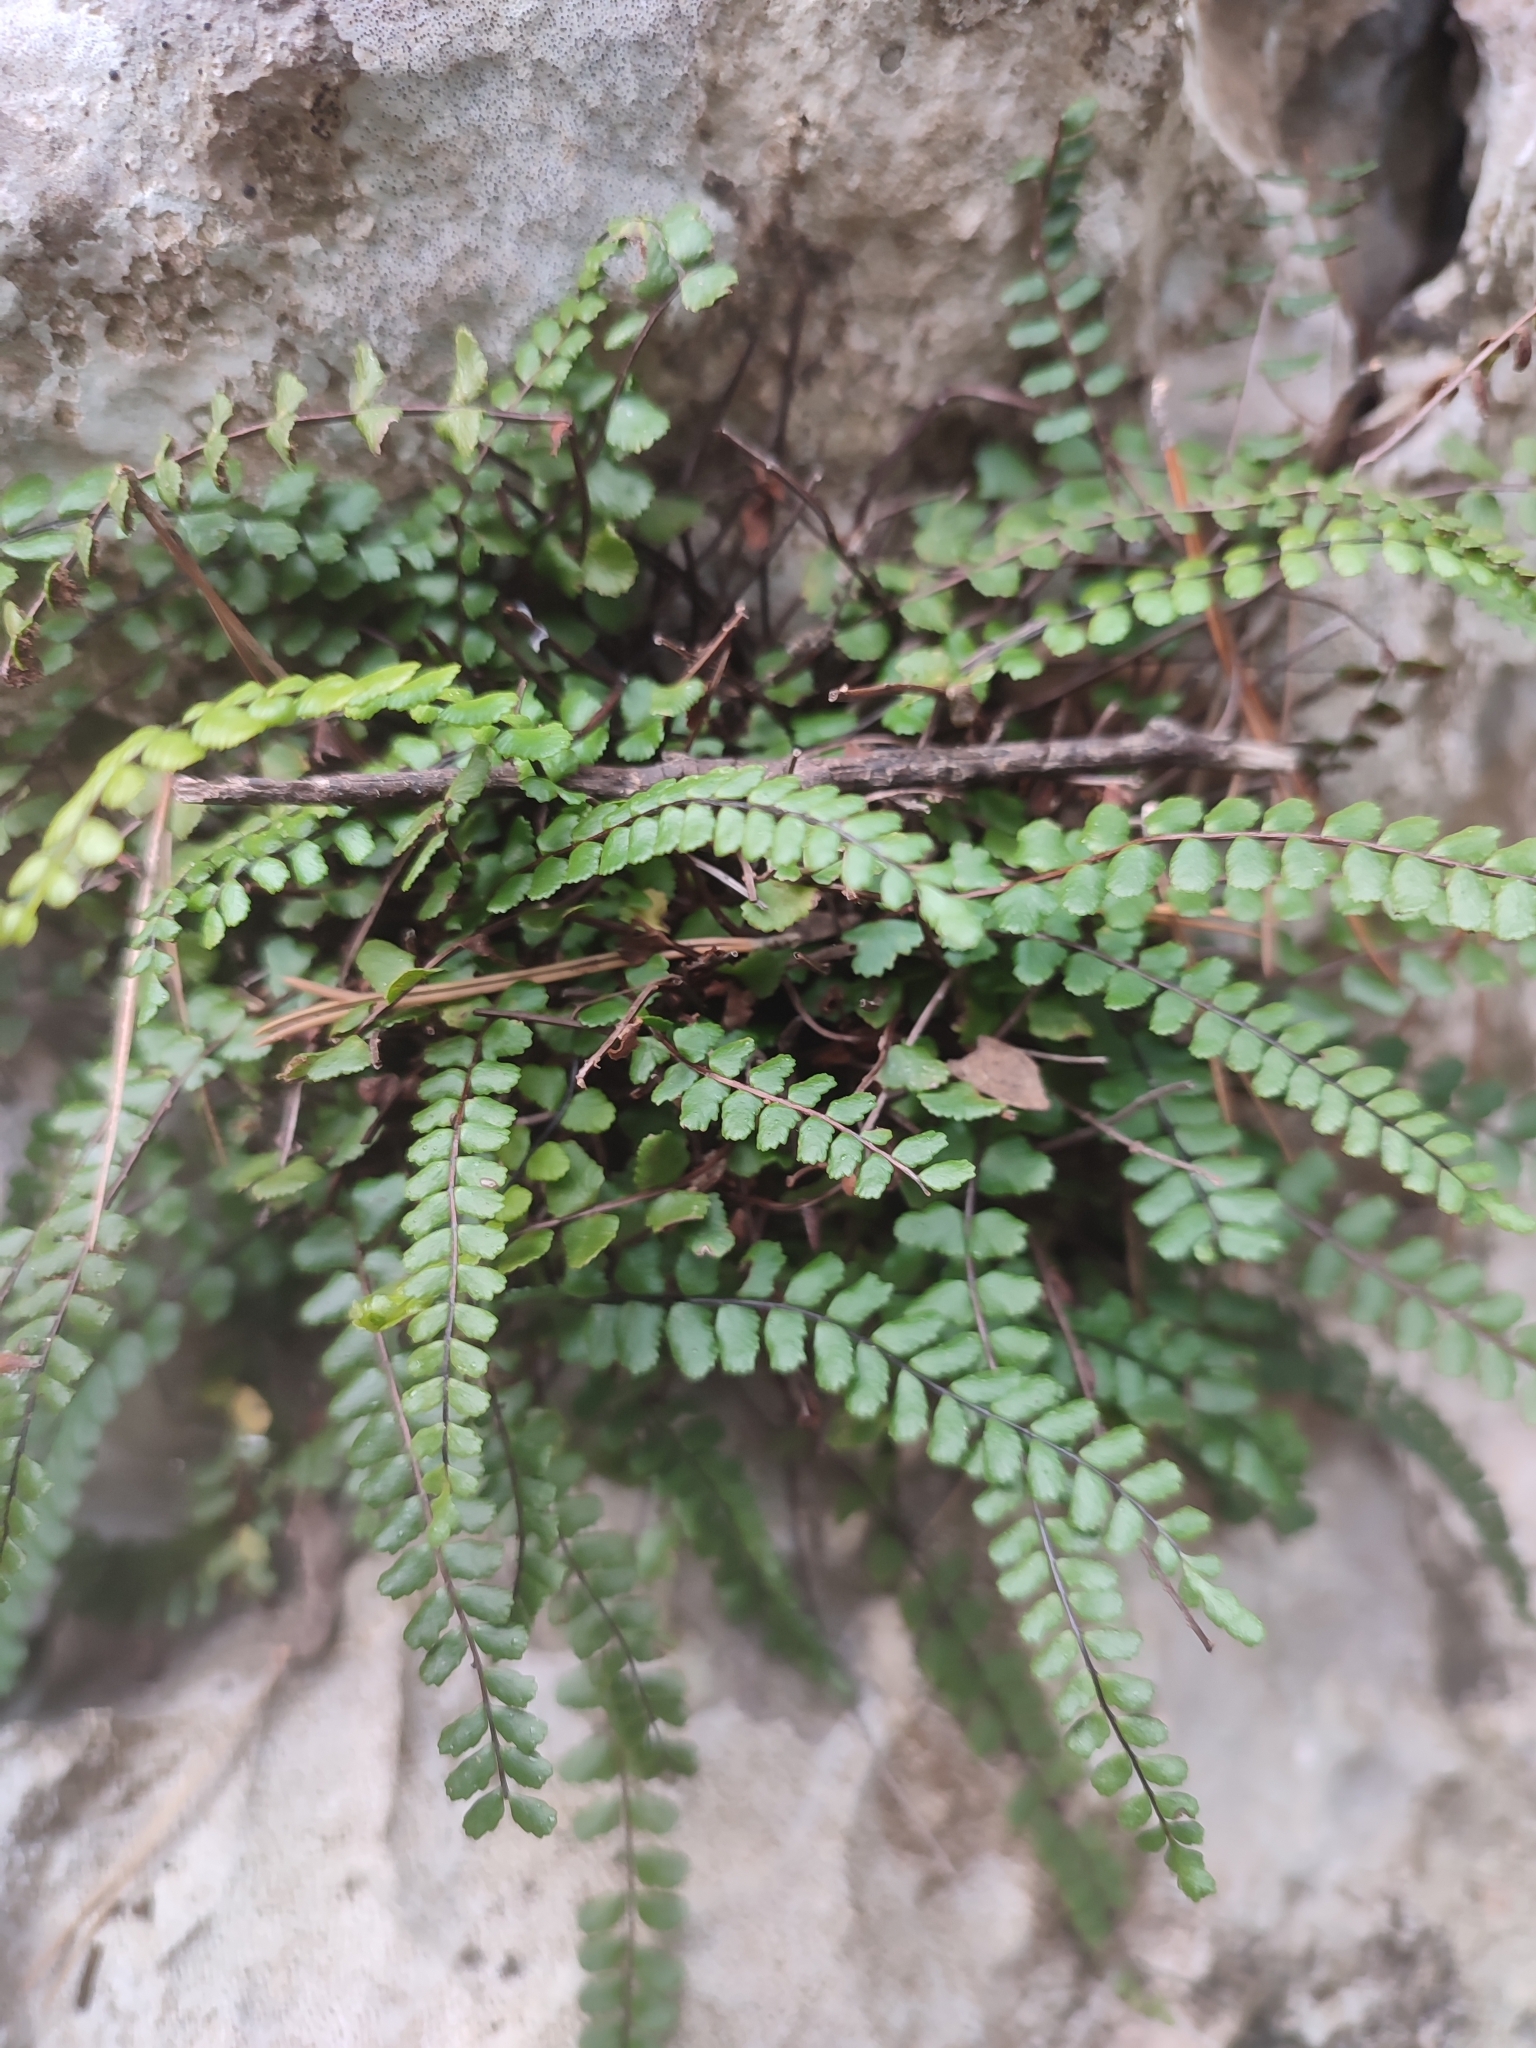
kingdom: Plantae
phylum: Tracheophyta
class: Polypodiopsida
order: Polypodiales
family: Aspleniaceae
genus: Asplenium
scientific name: Asplenium trichomanes
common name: Maidenhair spleenwort
